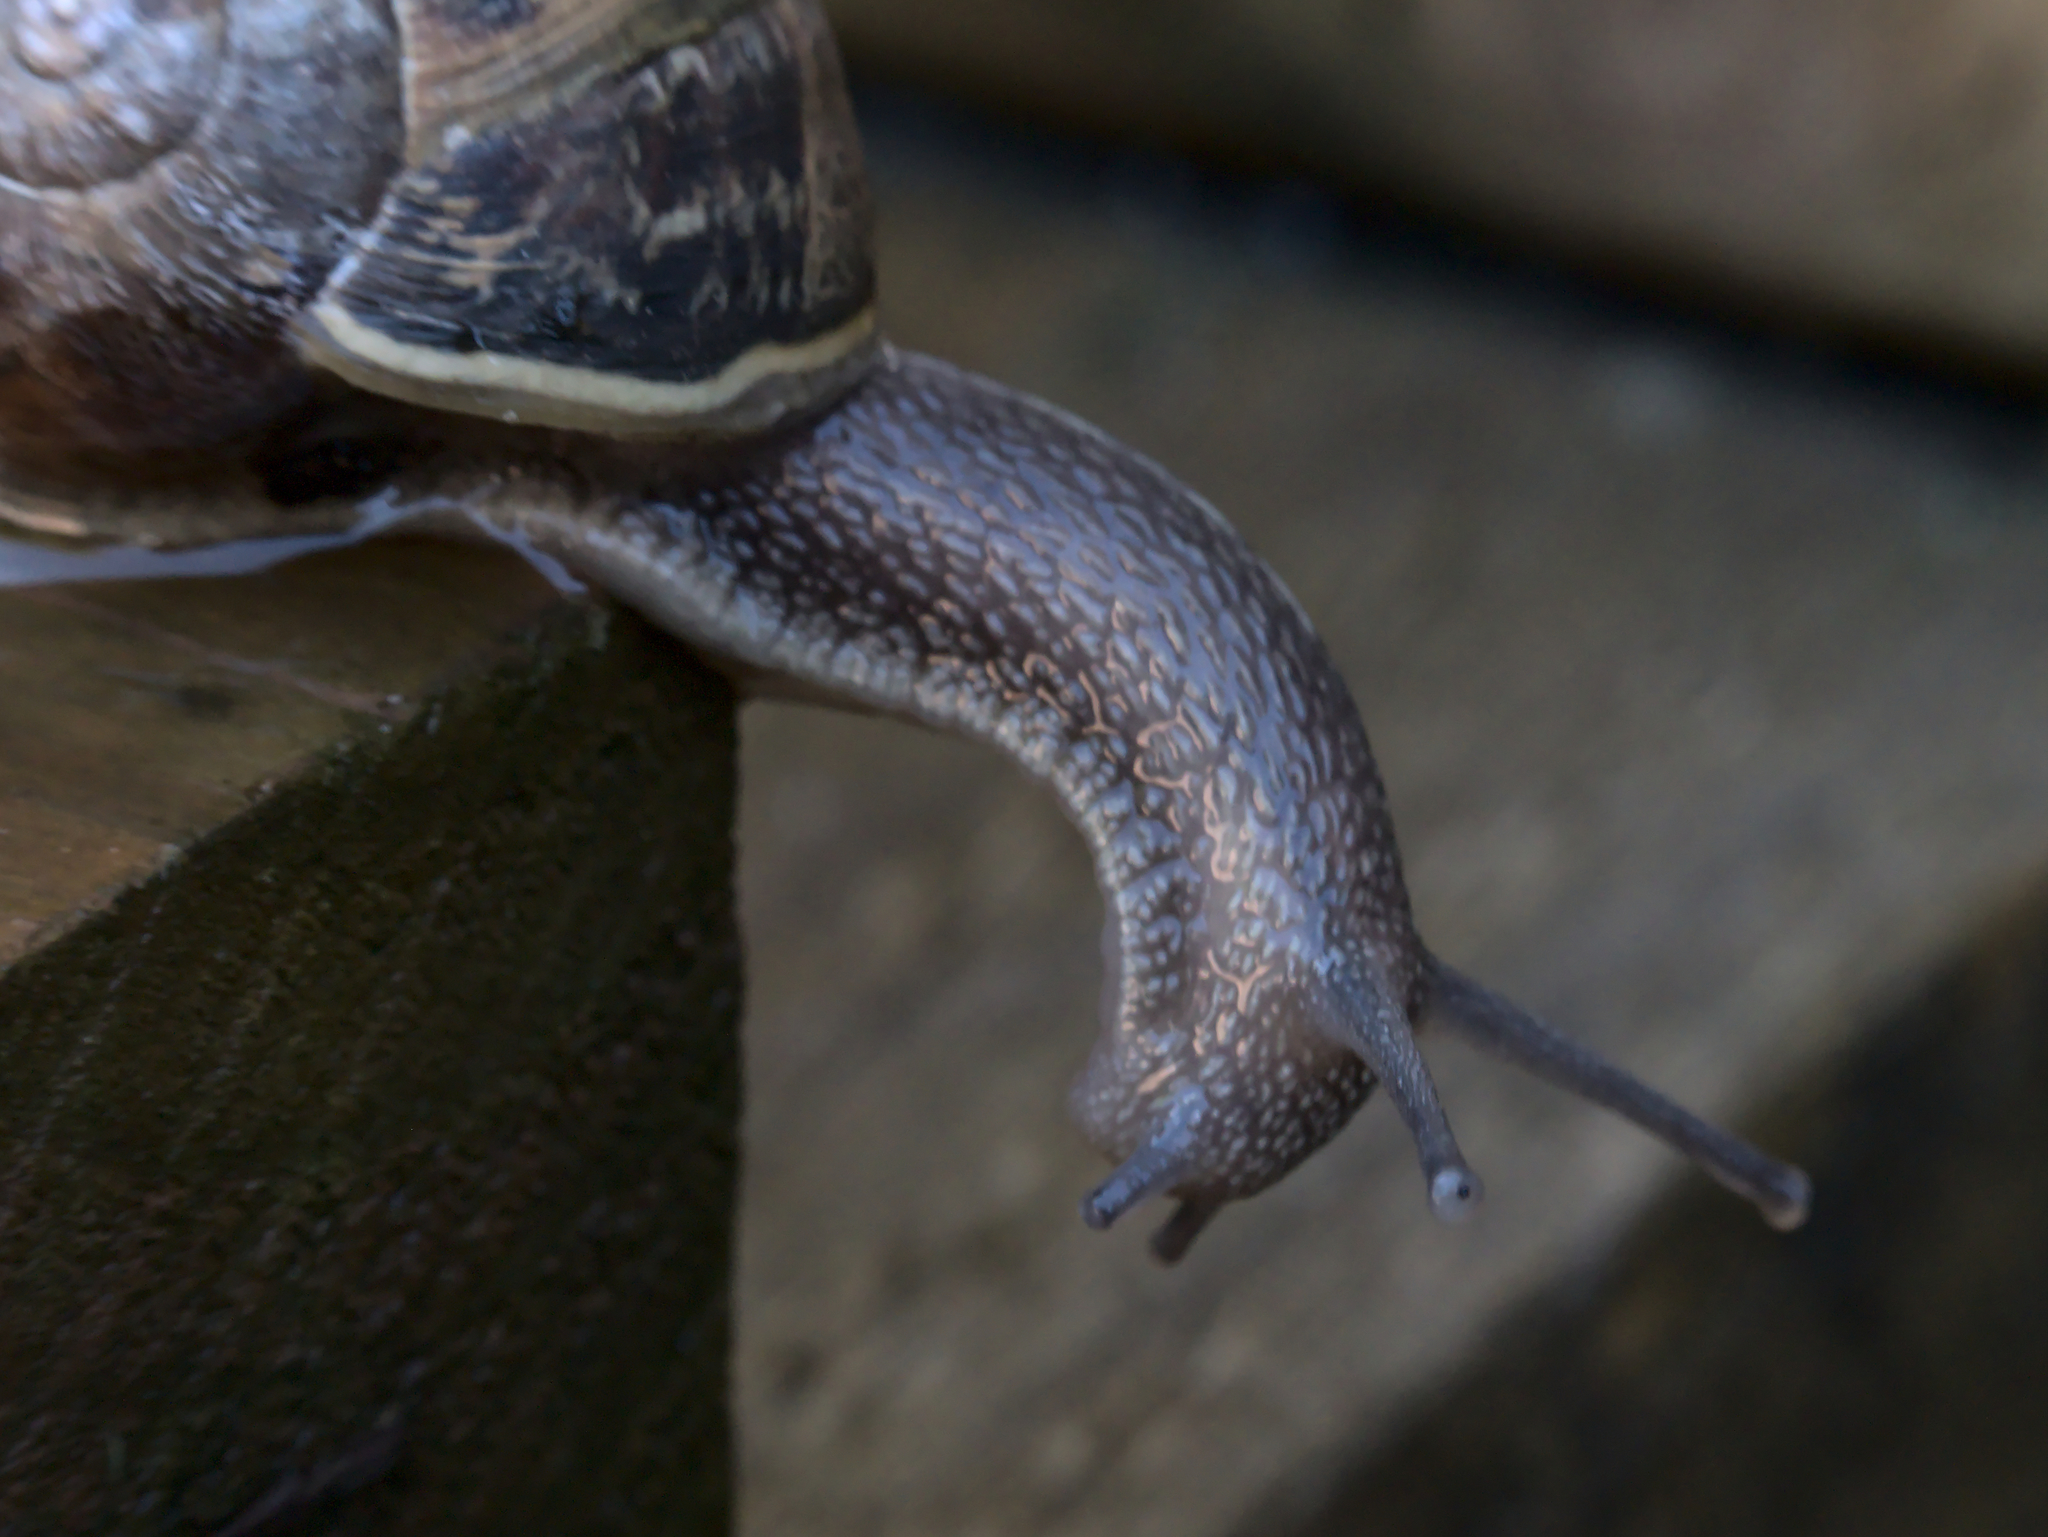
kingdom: Animalia
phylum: Mollusca
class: Gastropoda
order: Stylommatophora
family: Helicidae
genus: Cornu
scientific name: Cornu aspersum
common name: Brown garden snail
